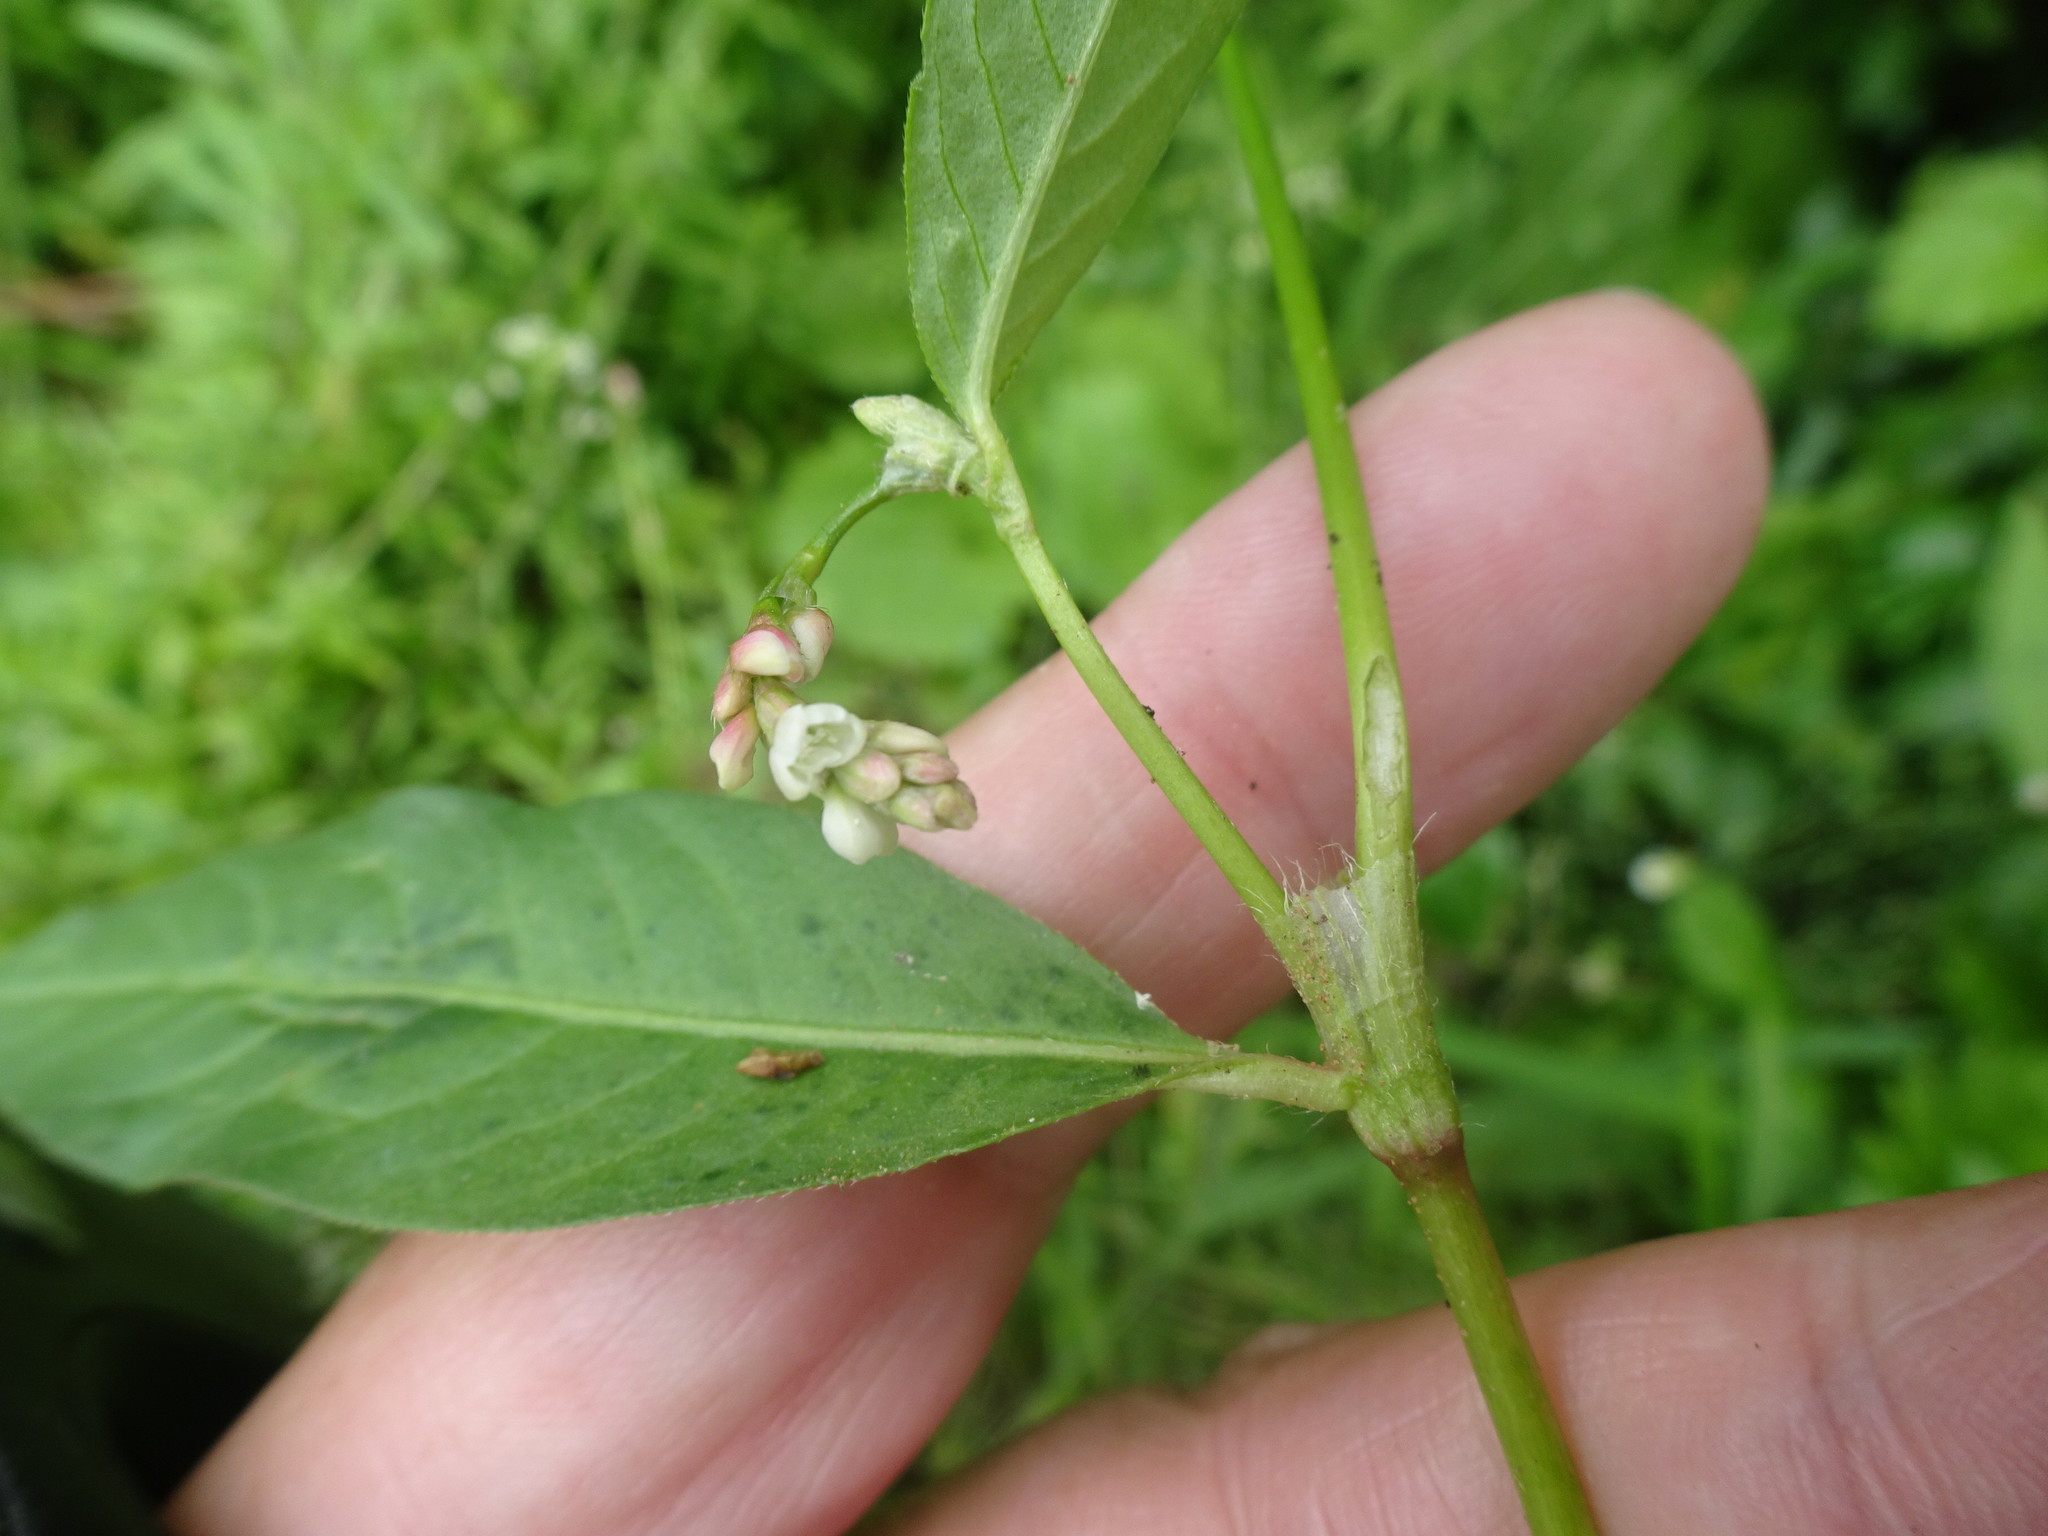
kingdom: Plantae
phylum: Tracheophyta
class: Magnoliopsida
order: Caryophyllales
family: Polygonaceae
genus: Persicaria
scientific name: Persicaria maculosa
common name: Redshank
